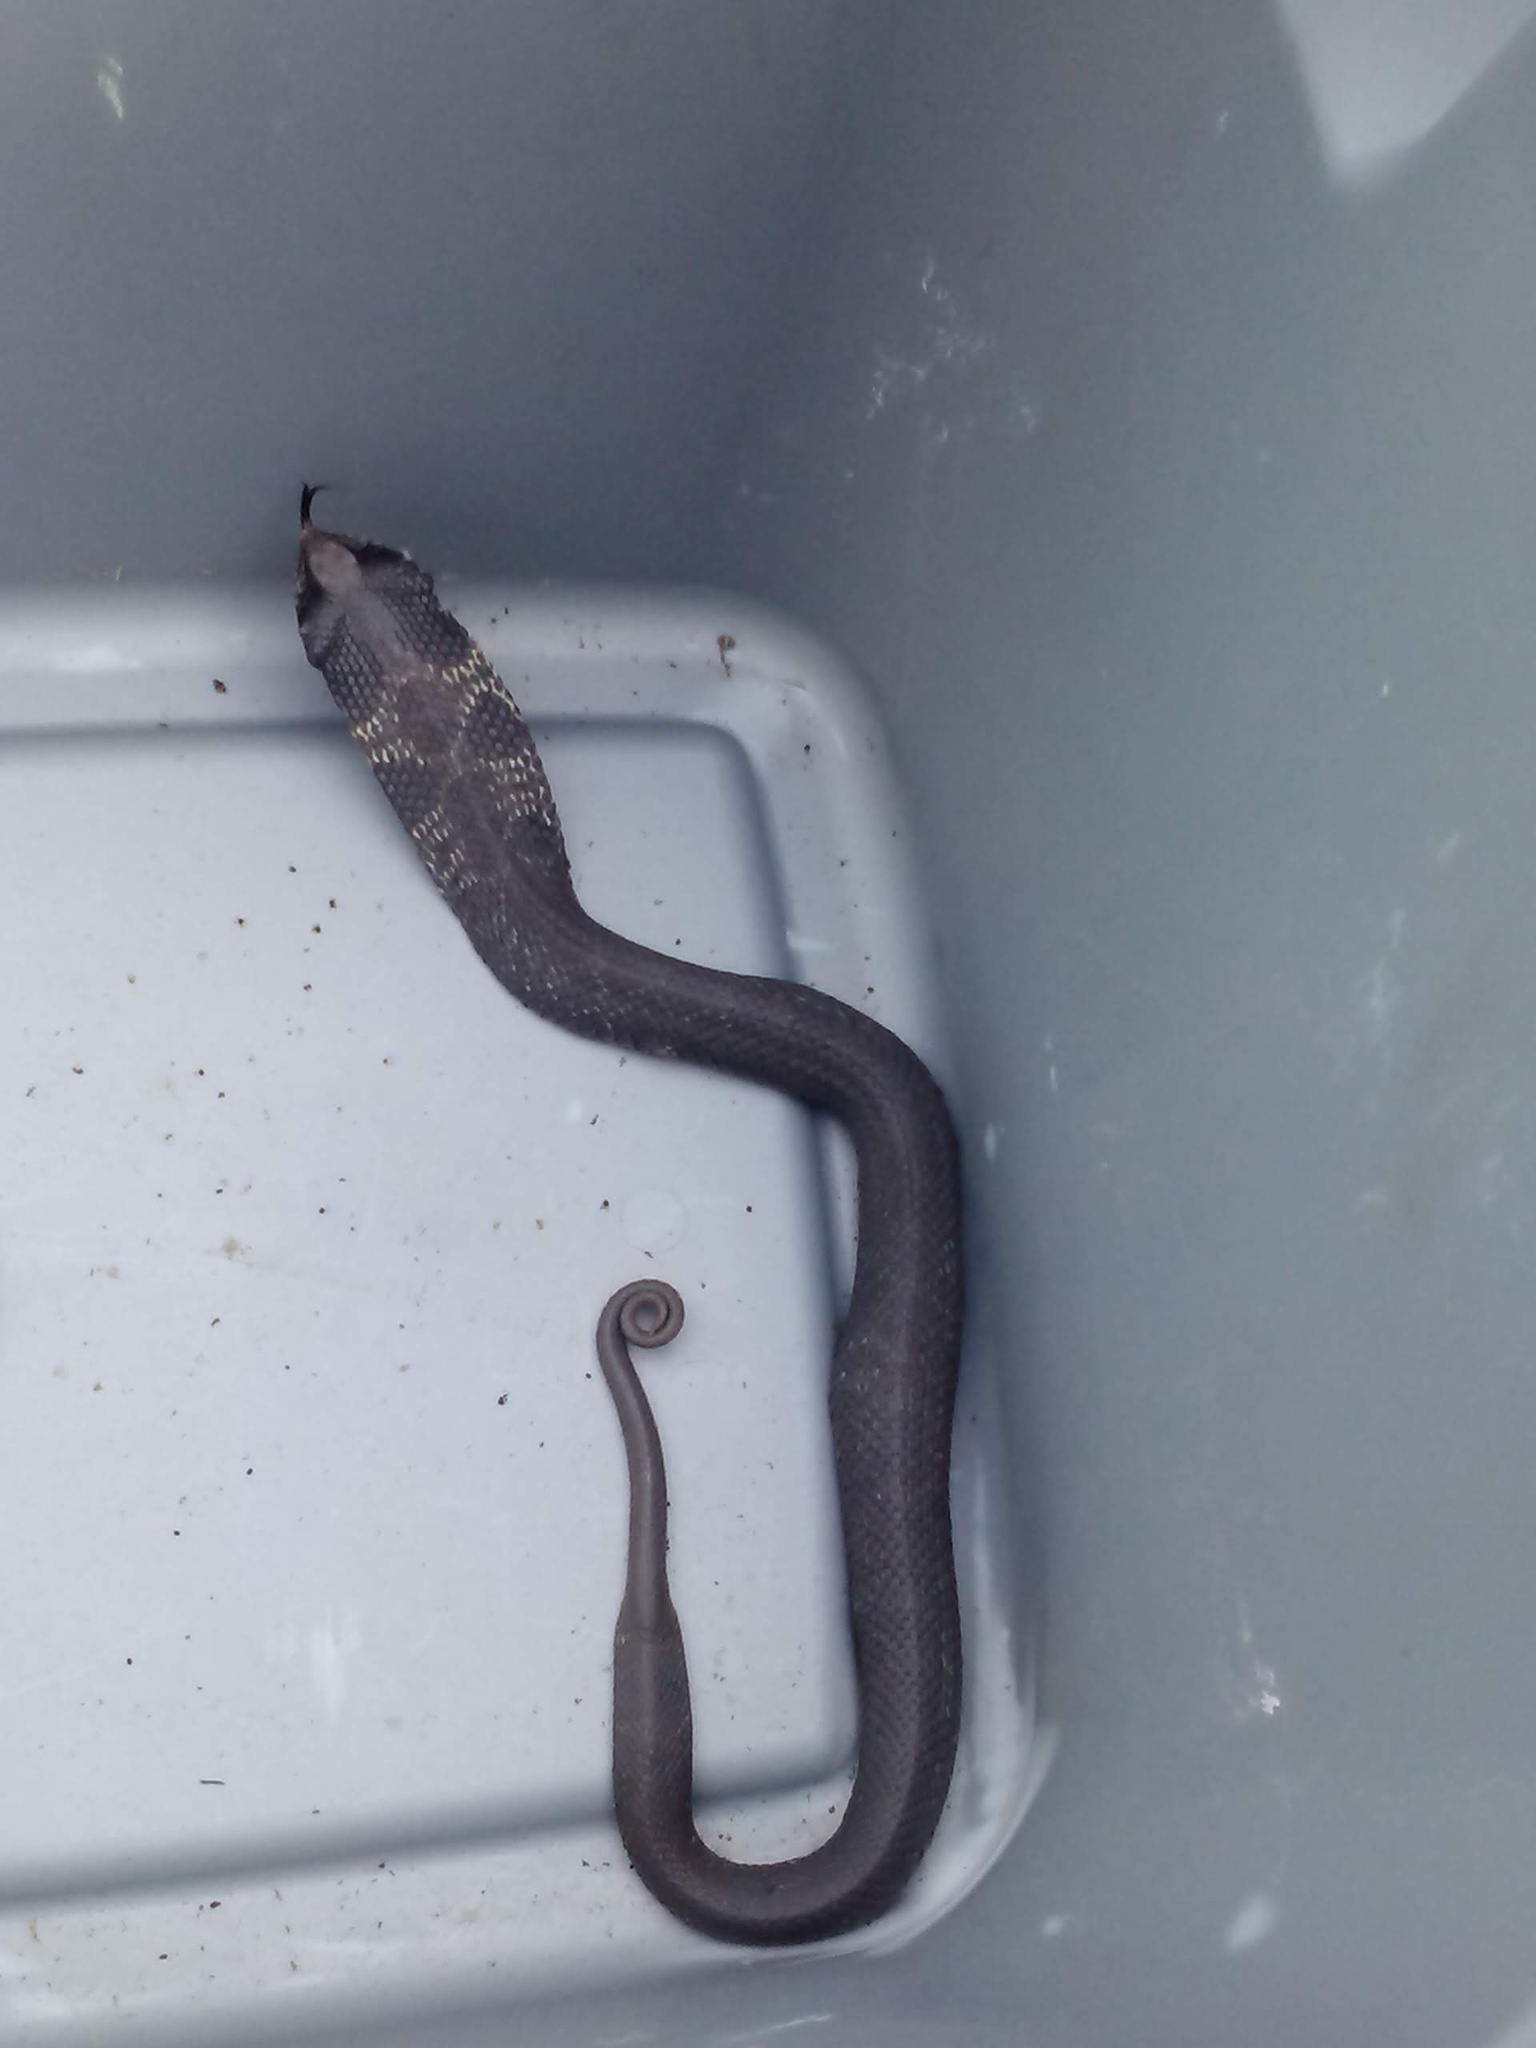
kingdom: Animalia
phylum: Chordata
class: Squamata
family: Colubridae
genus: Heterodon
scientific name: Heterodon platirhinos
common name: Eastern hognose snake
